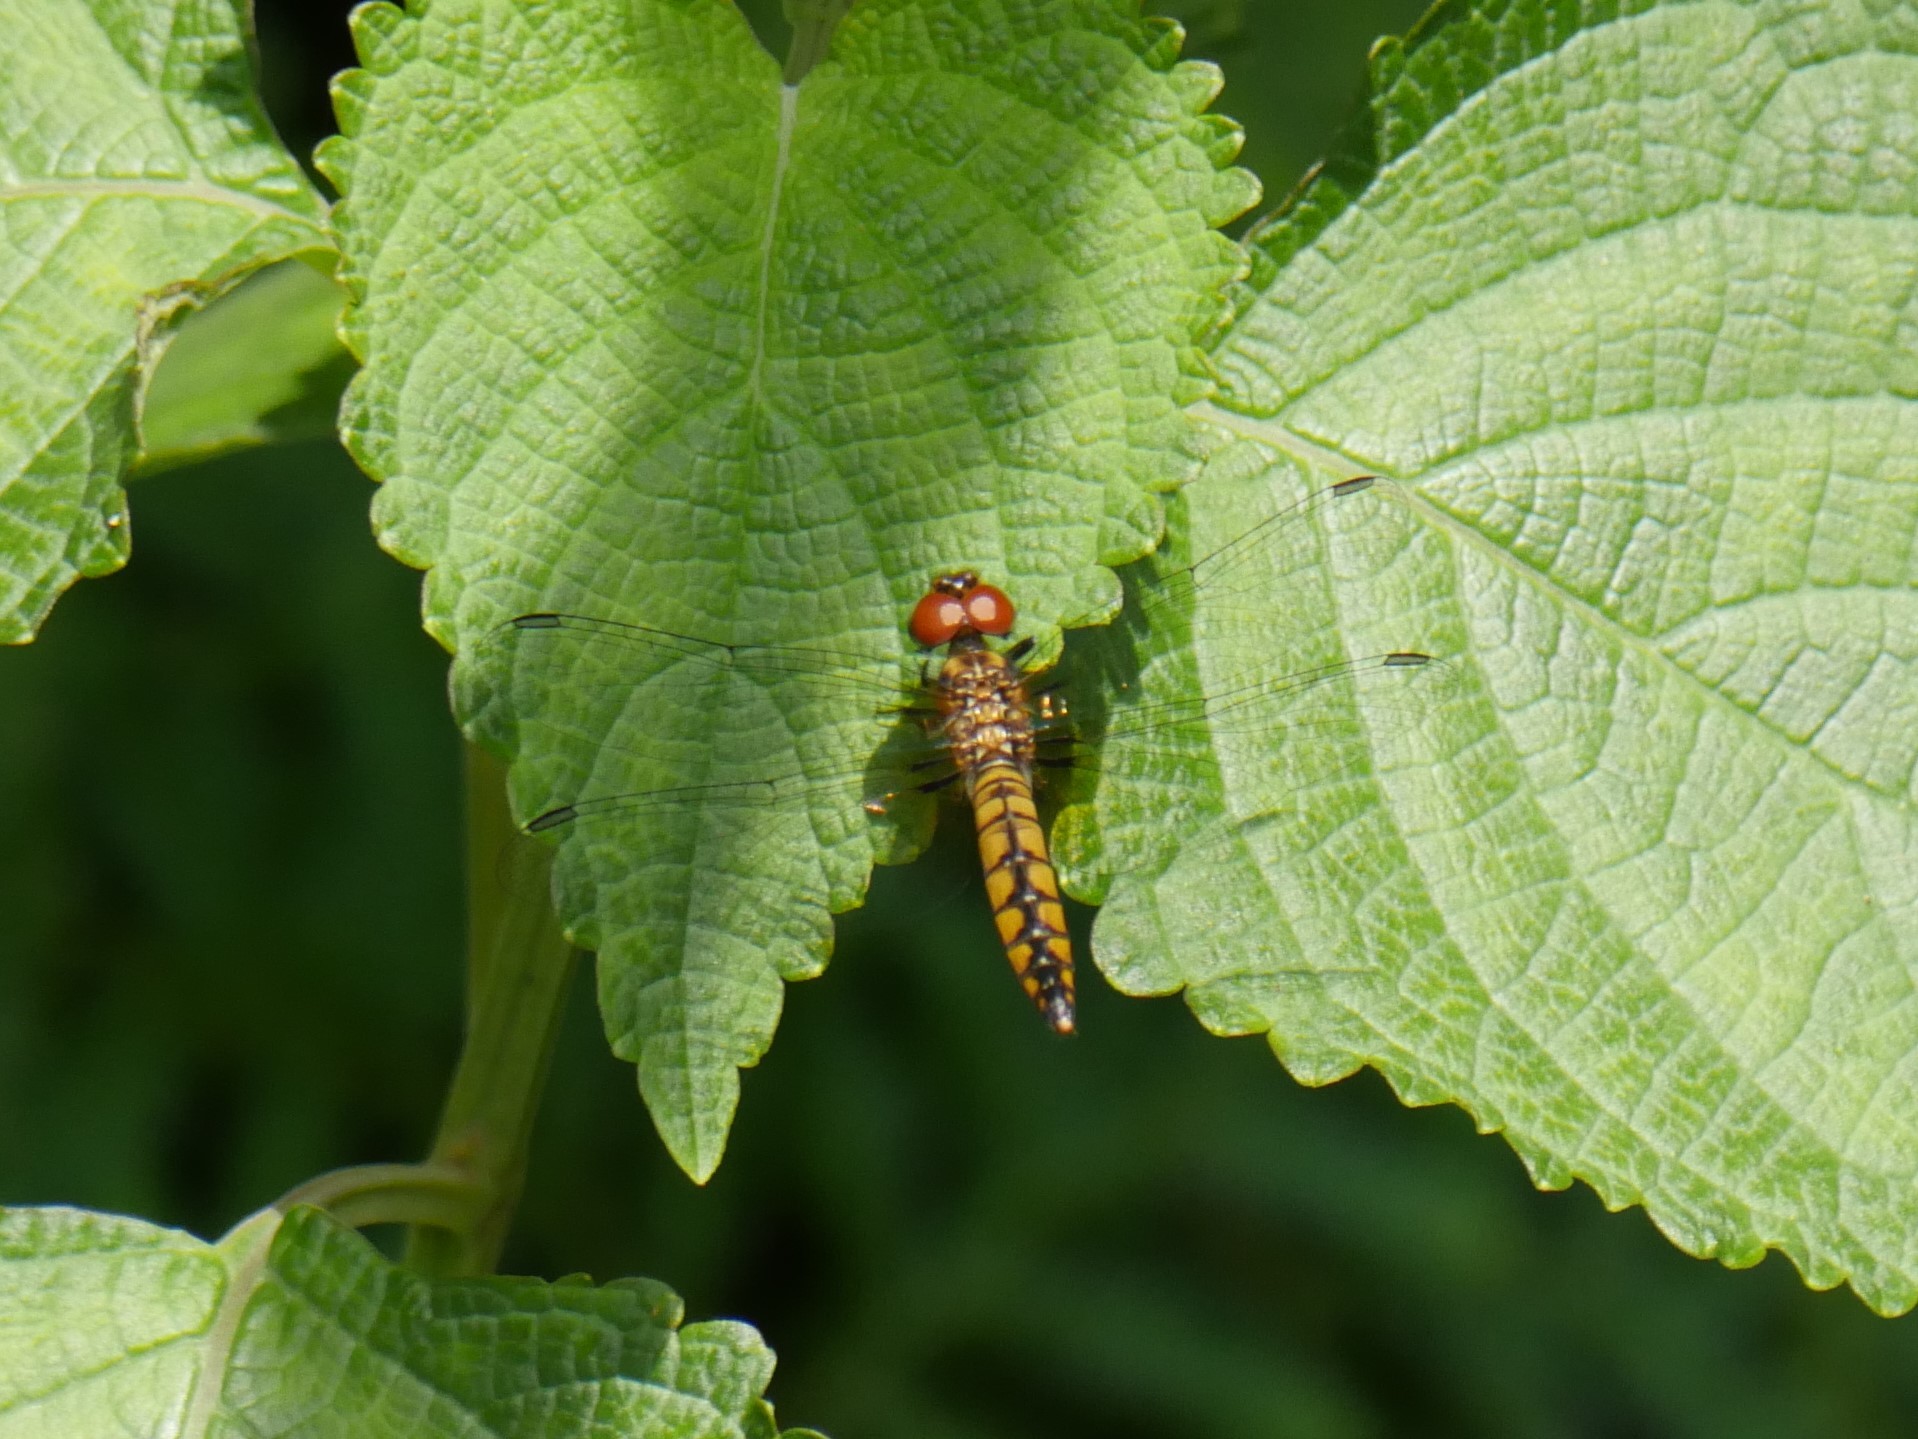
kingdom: Animalia
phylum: Arthropoda
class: Insecta
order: Odonata
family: Libellulidae
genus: Aethriamanta
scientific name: Aethriamanta rezia
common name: Pygmy basker
